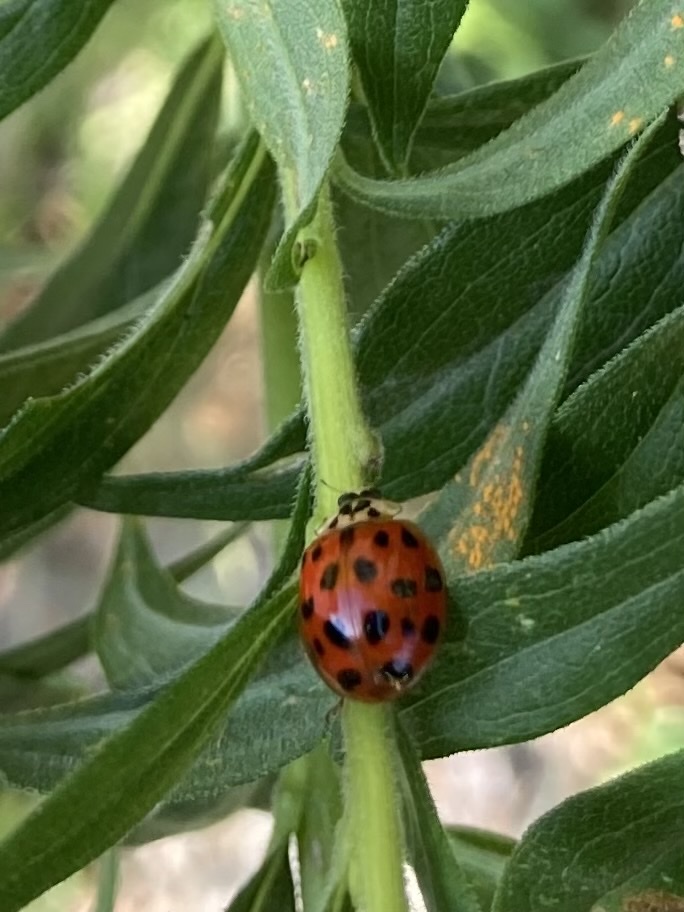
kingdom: Animalia
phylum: Arthropoda
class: Insecta
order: Coleoptera
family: Coccinellidae
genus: Harmonia
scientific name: Harmonia axyridis
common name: Harlequin ladybird
